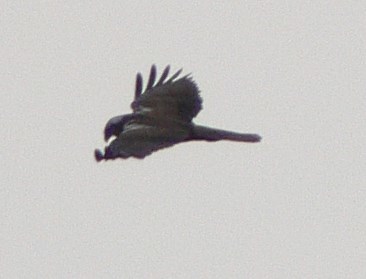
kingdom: Animalia
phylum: Chordata
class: Aves
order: Accipitriformes
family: Accipitridae
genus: Milvus
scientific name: Milvus migrans
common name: Black kite
